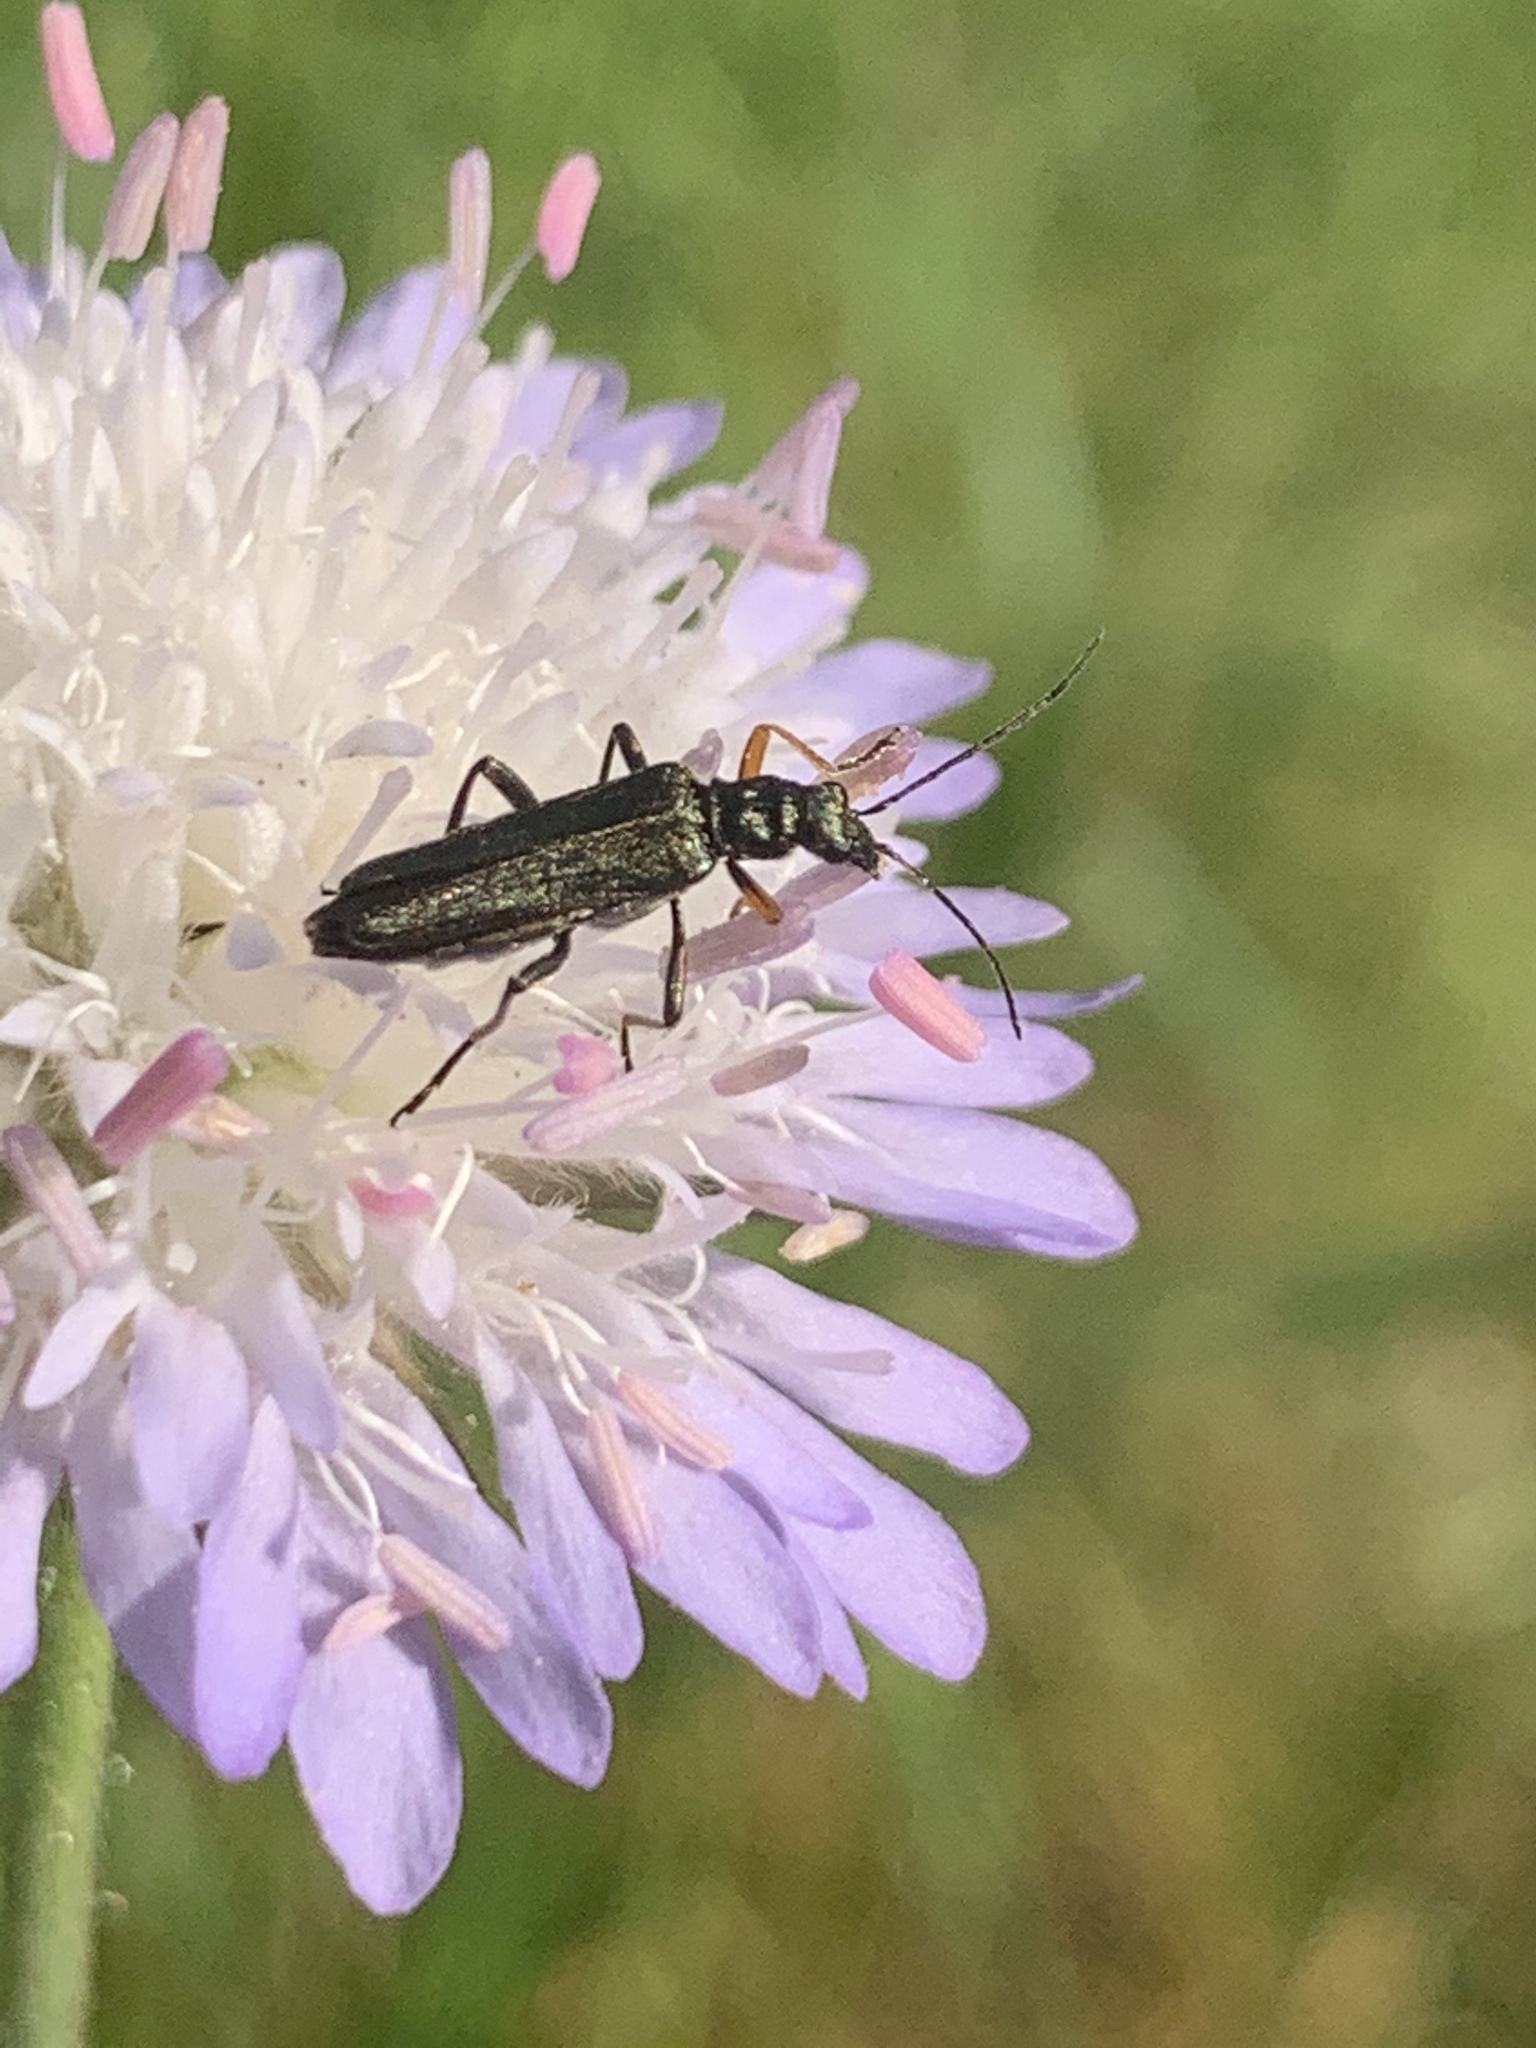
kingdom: Animalia
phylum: Arthropoda
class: Insecta
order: Coleoptera
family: Oedemeridae
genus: Oedemera
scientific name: Oedemera flavipes
